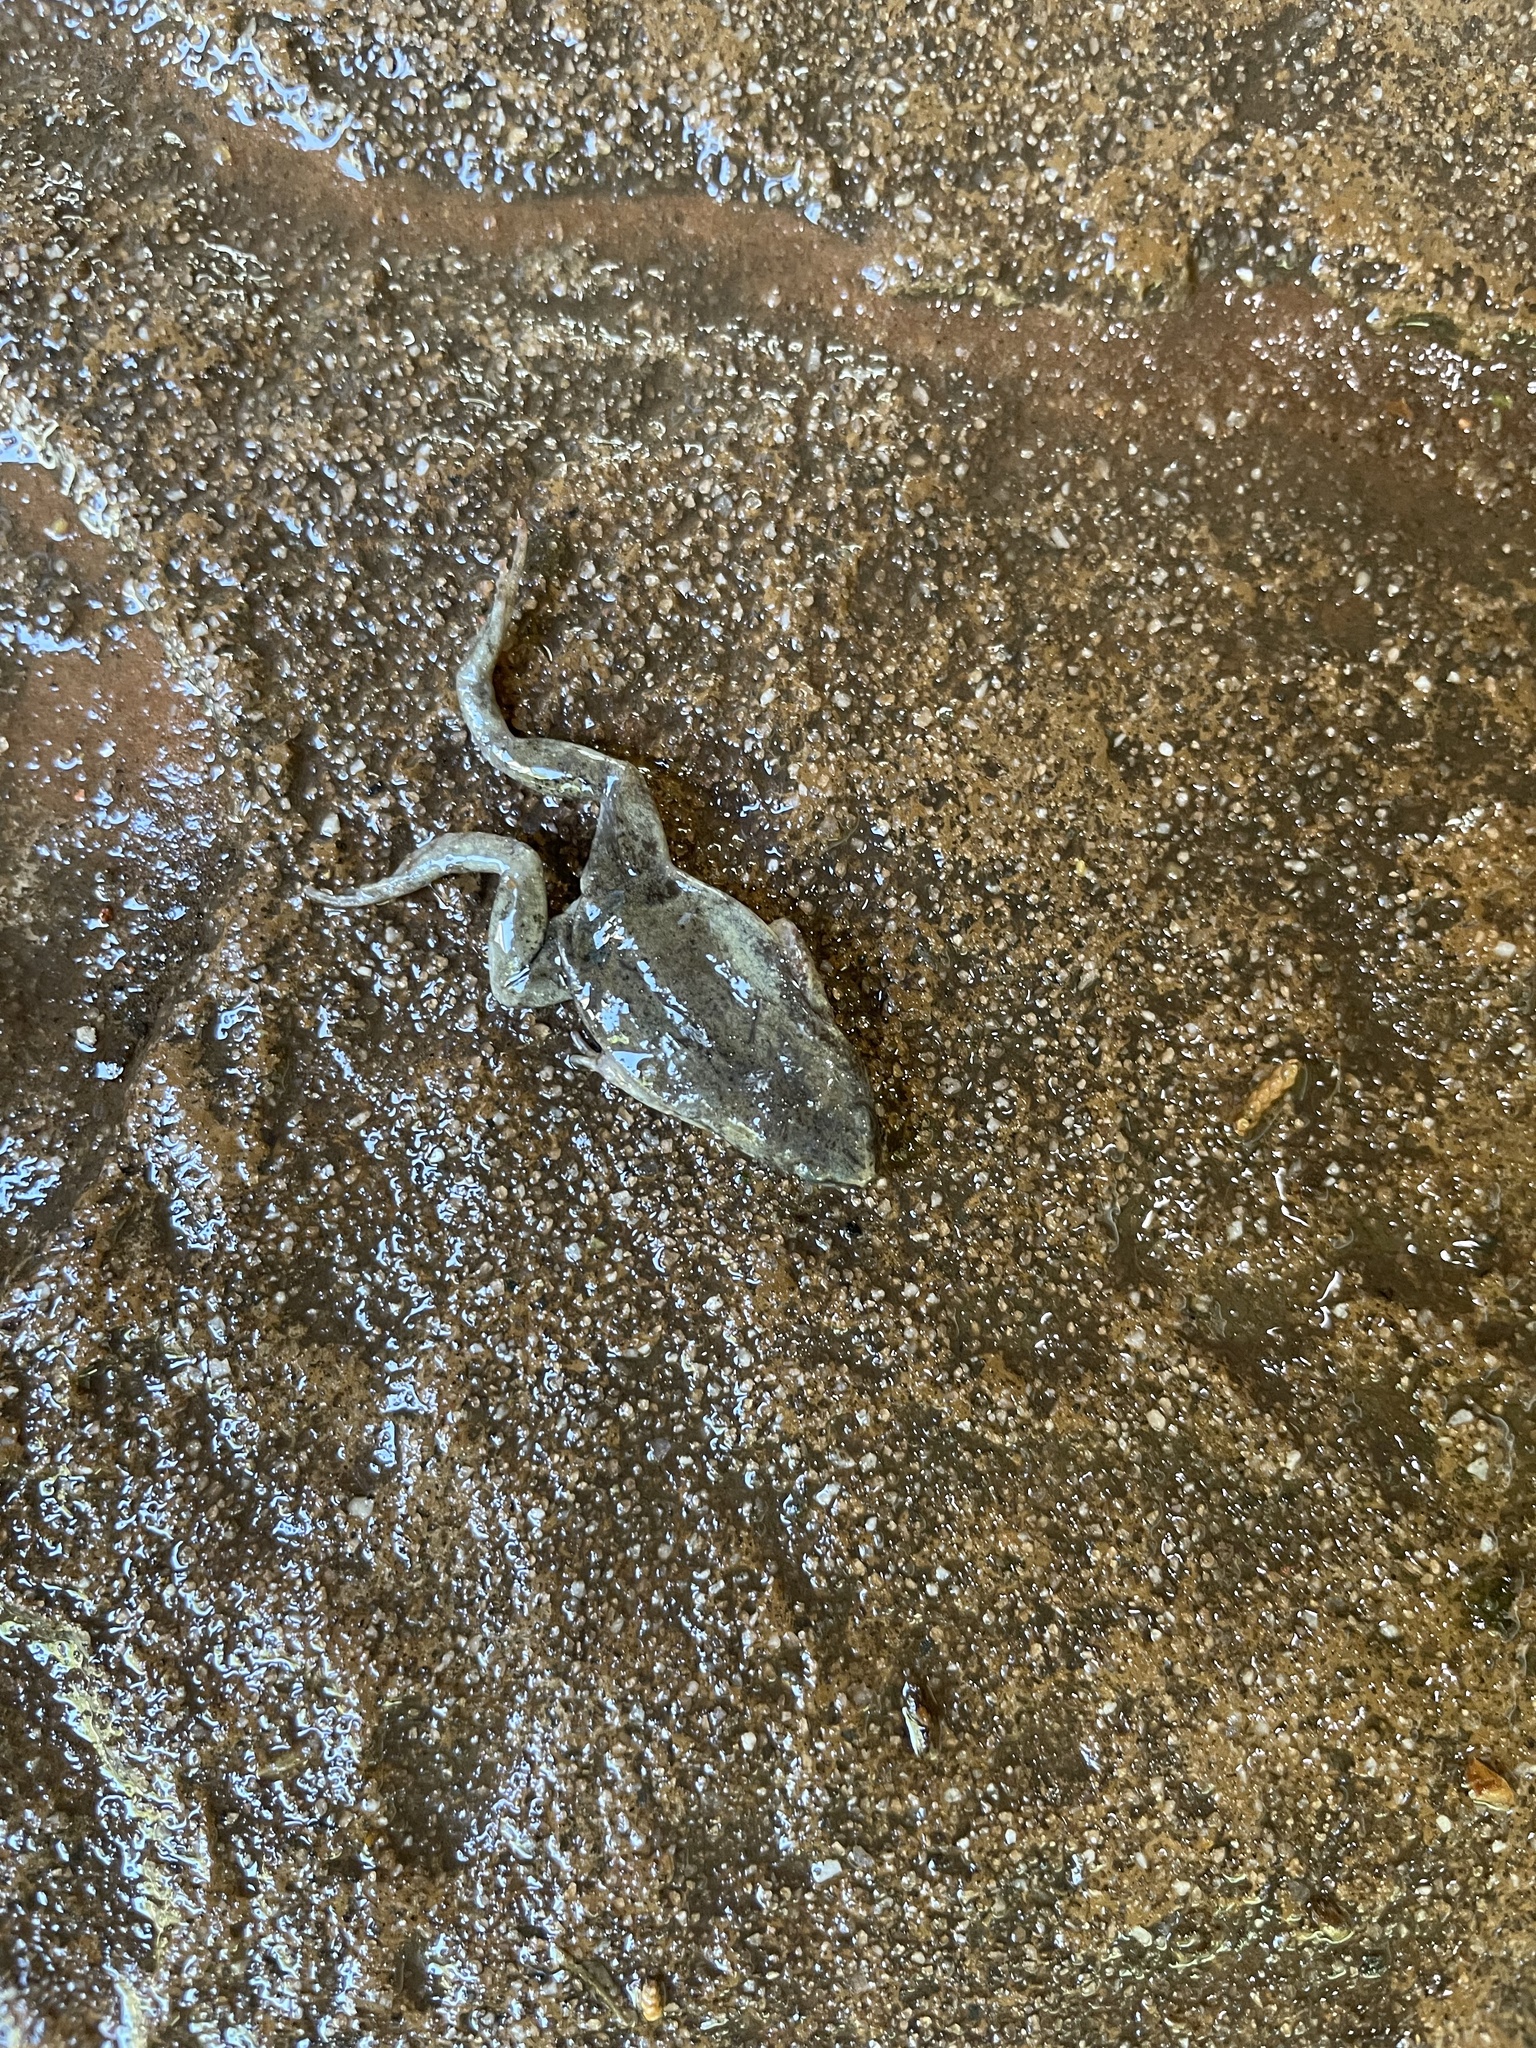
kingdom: Animalia
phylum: Chordata
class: Amphibia
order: Anura
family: Microhylidae
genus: Gastrophryne
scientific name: Gastrophryne olivacea
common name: Great plains narrow-mouthed toad
